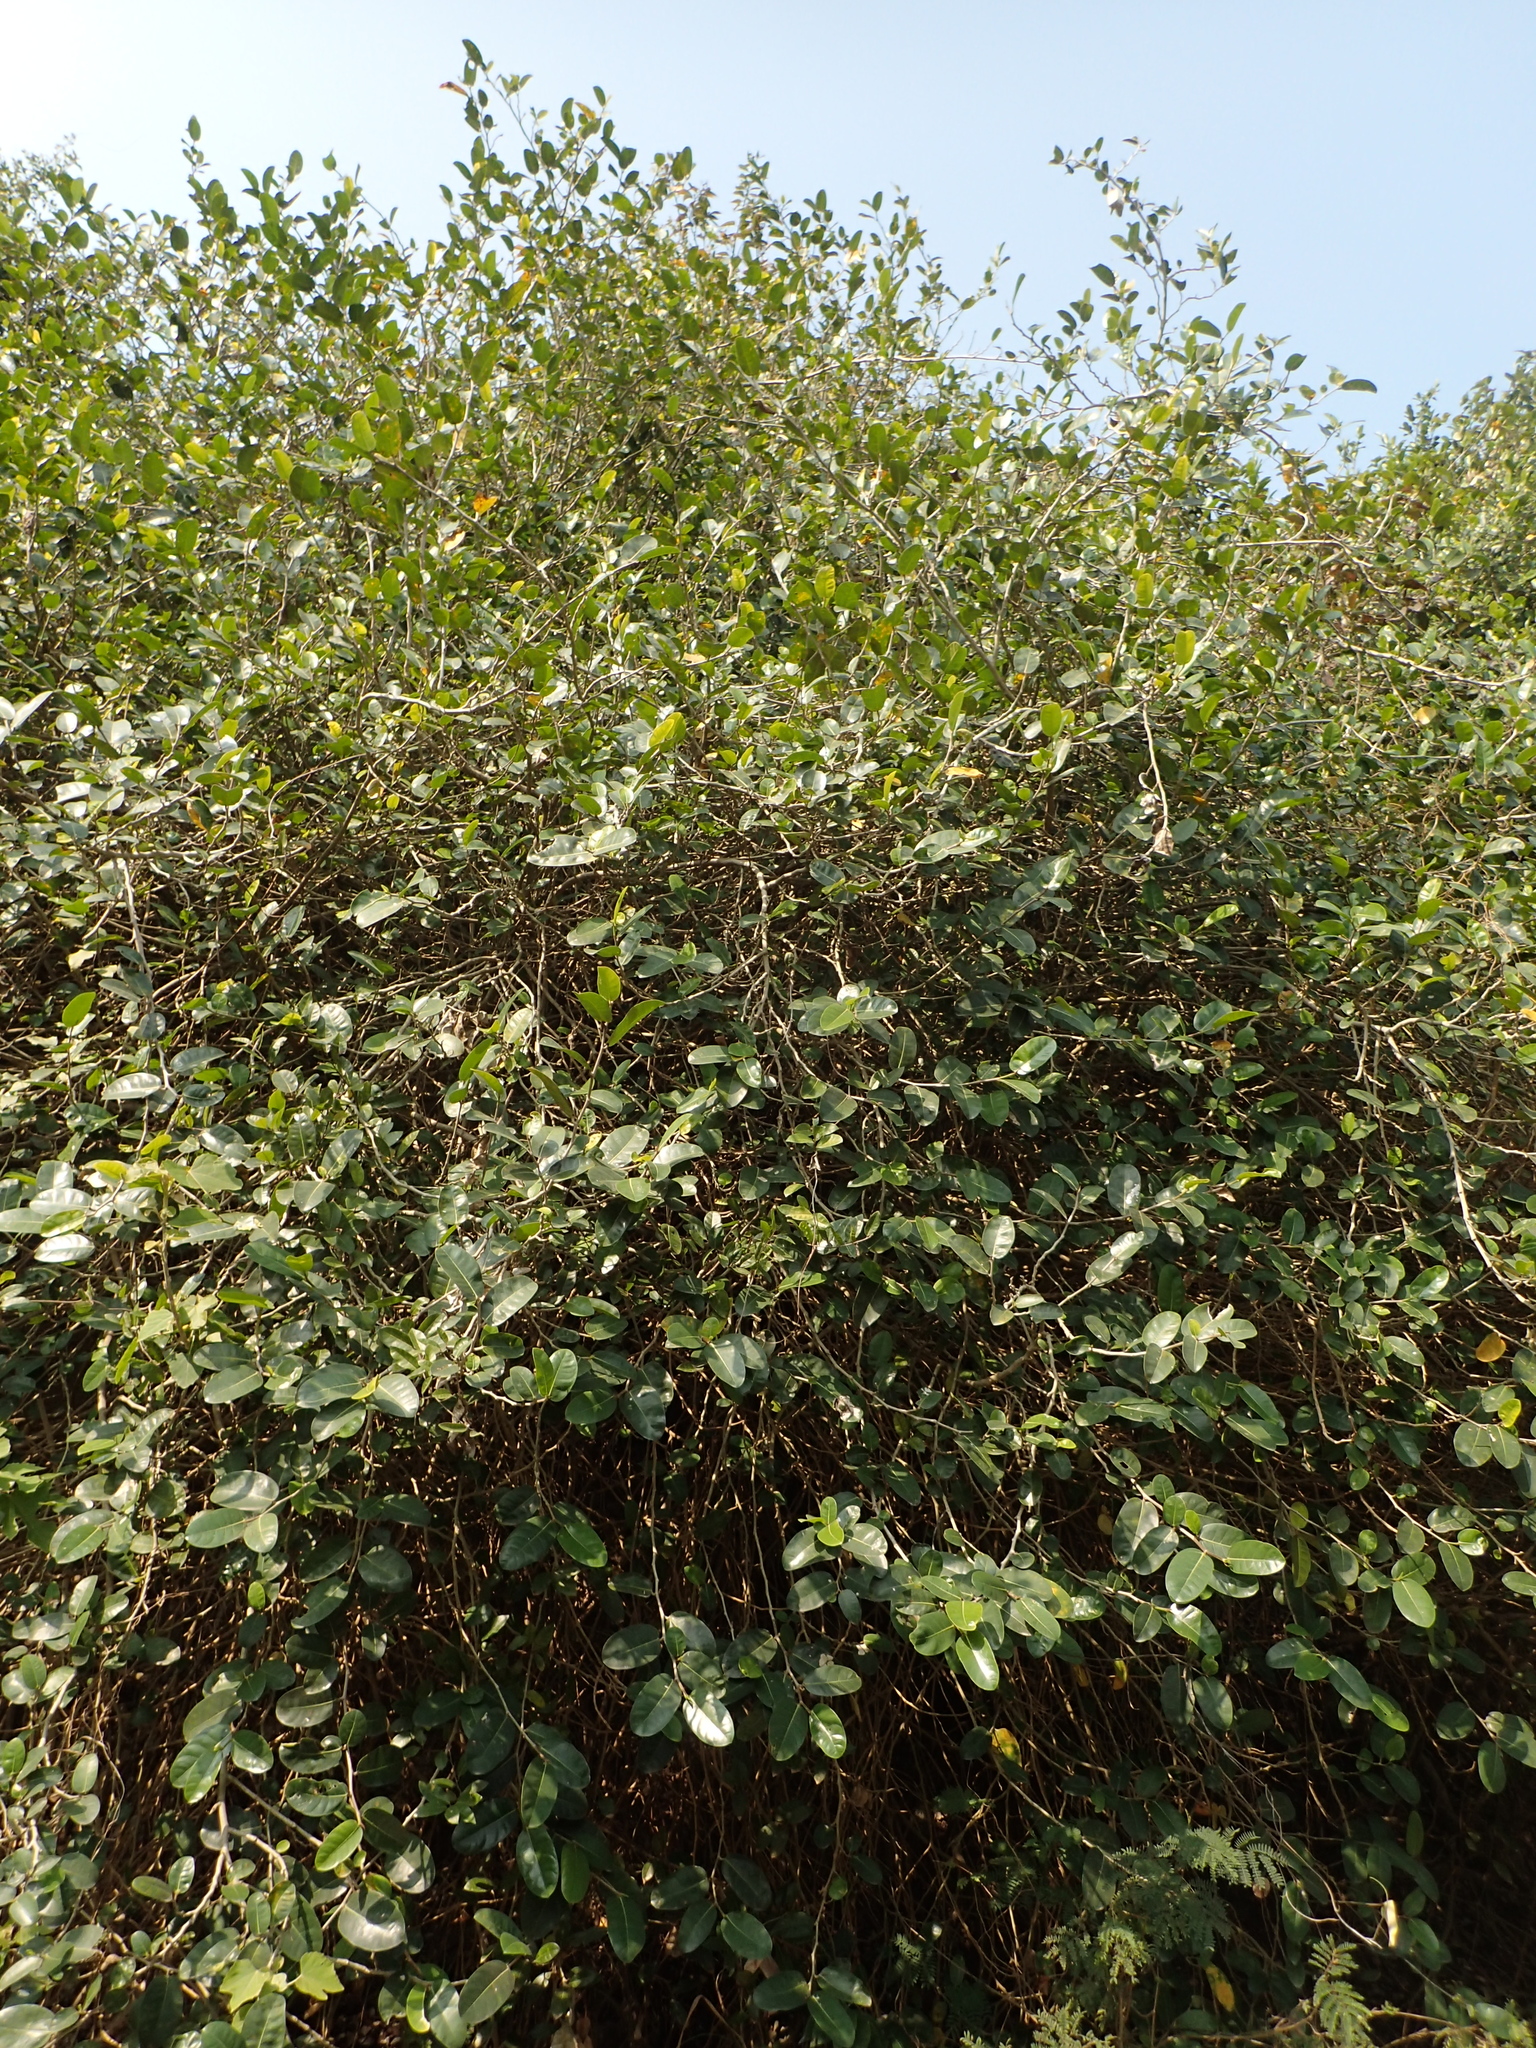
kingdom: Plantae
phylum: Tracheophyta
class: Magnoliopsida
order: Rosales
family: Moraceae
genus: Ficus
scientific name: Ficus tinctoria
